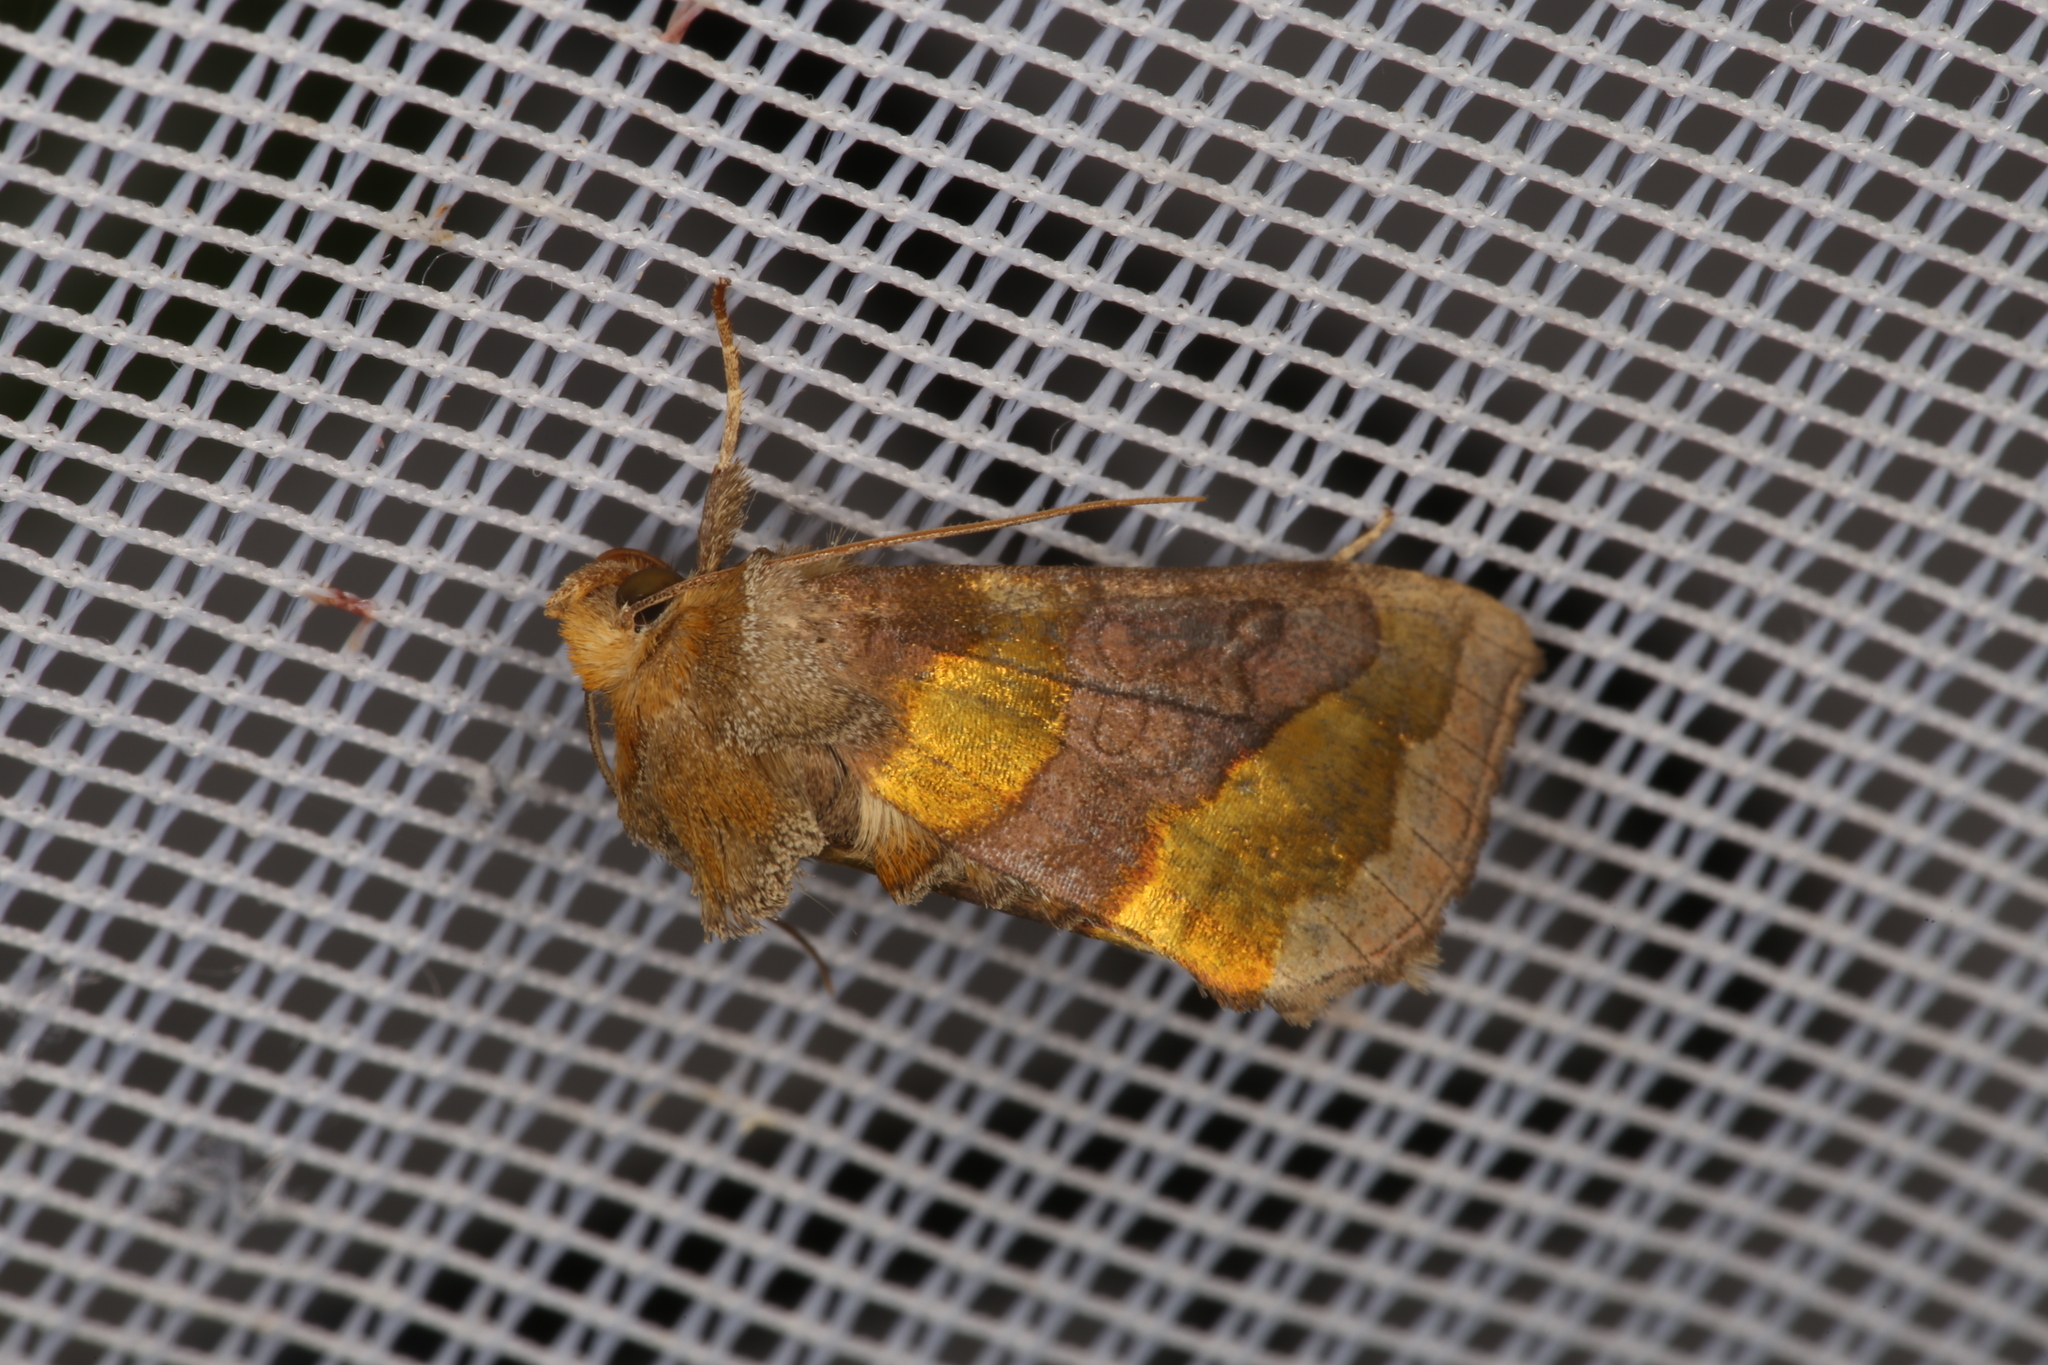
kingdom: Animalia
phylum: Arthropoda
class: Insecta
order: Lepidoptera
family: Noctuidae
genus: Diachrysia
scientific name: Diachrysia chrysitis
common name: Burnished brass
